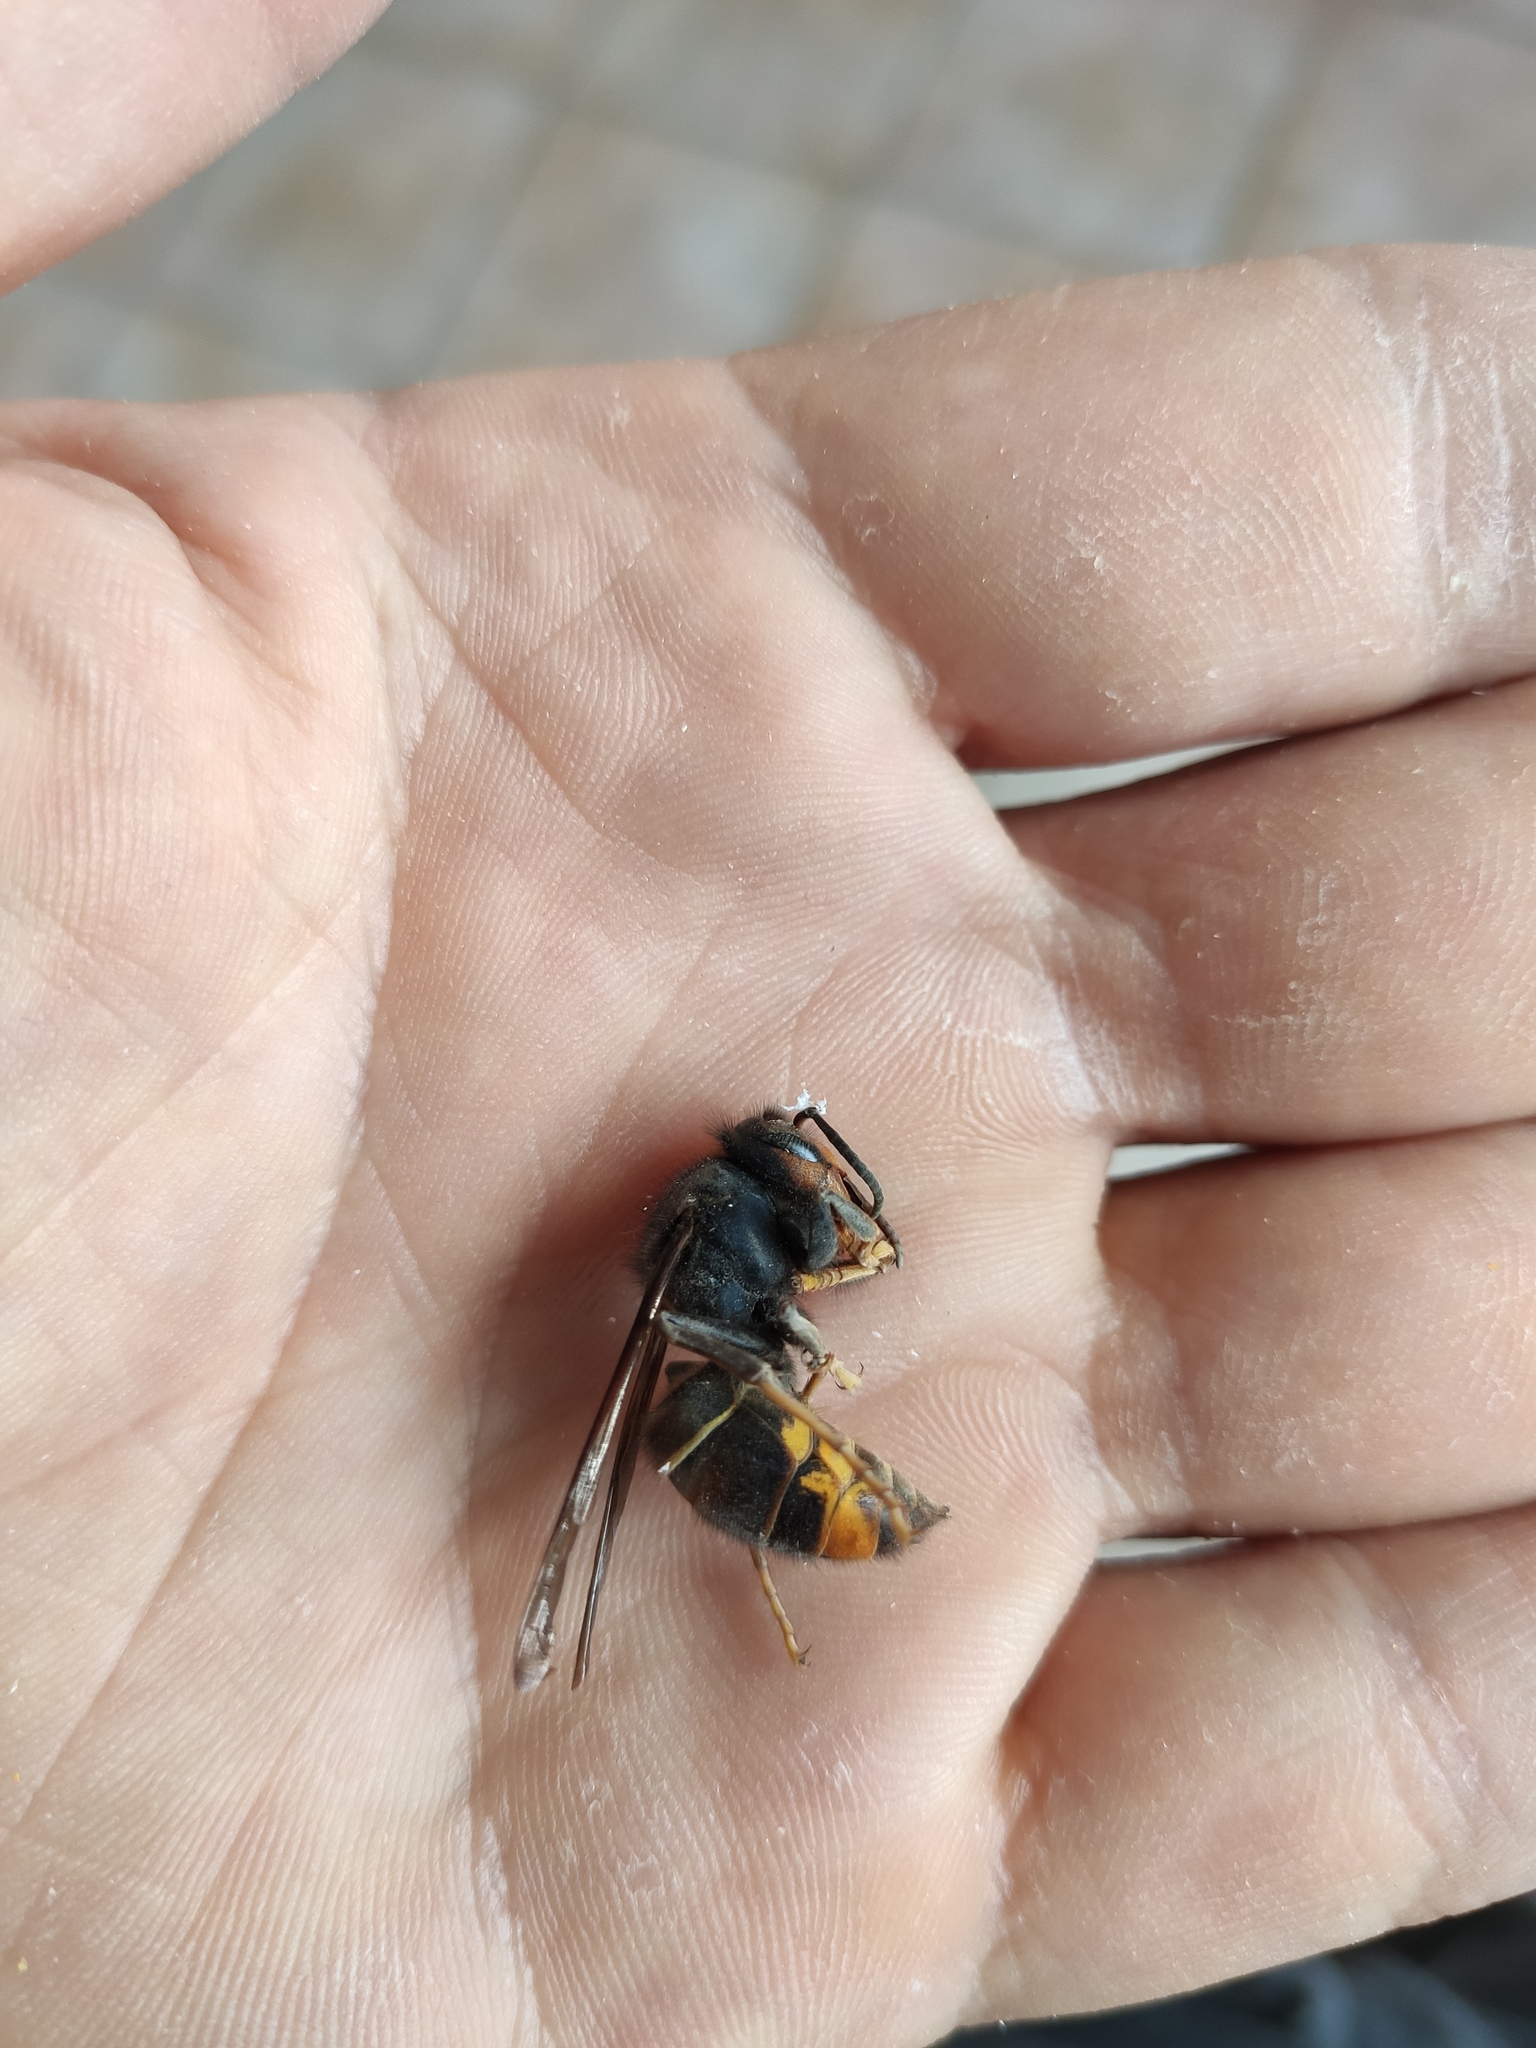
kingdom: Animalia
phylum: Arthropoda
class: Insecta
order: Hymenoptera
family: Vespidae
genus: Vespa
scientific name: Vespa velutina
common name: Asian hornet
